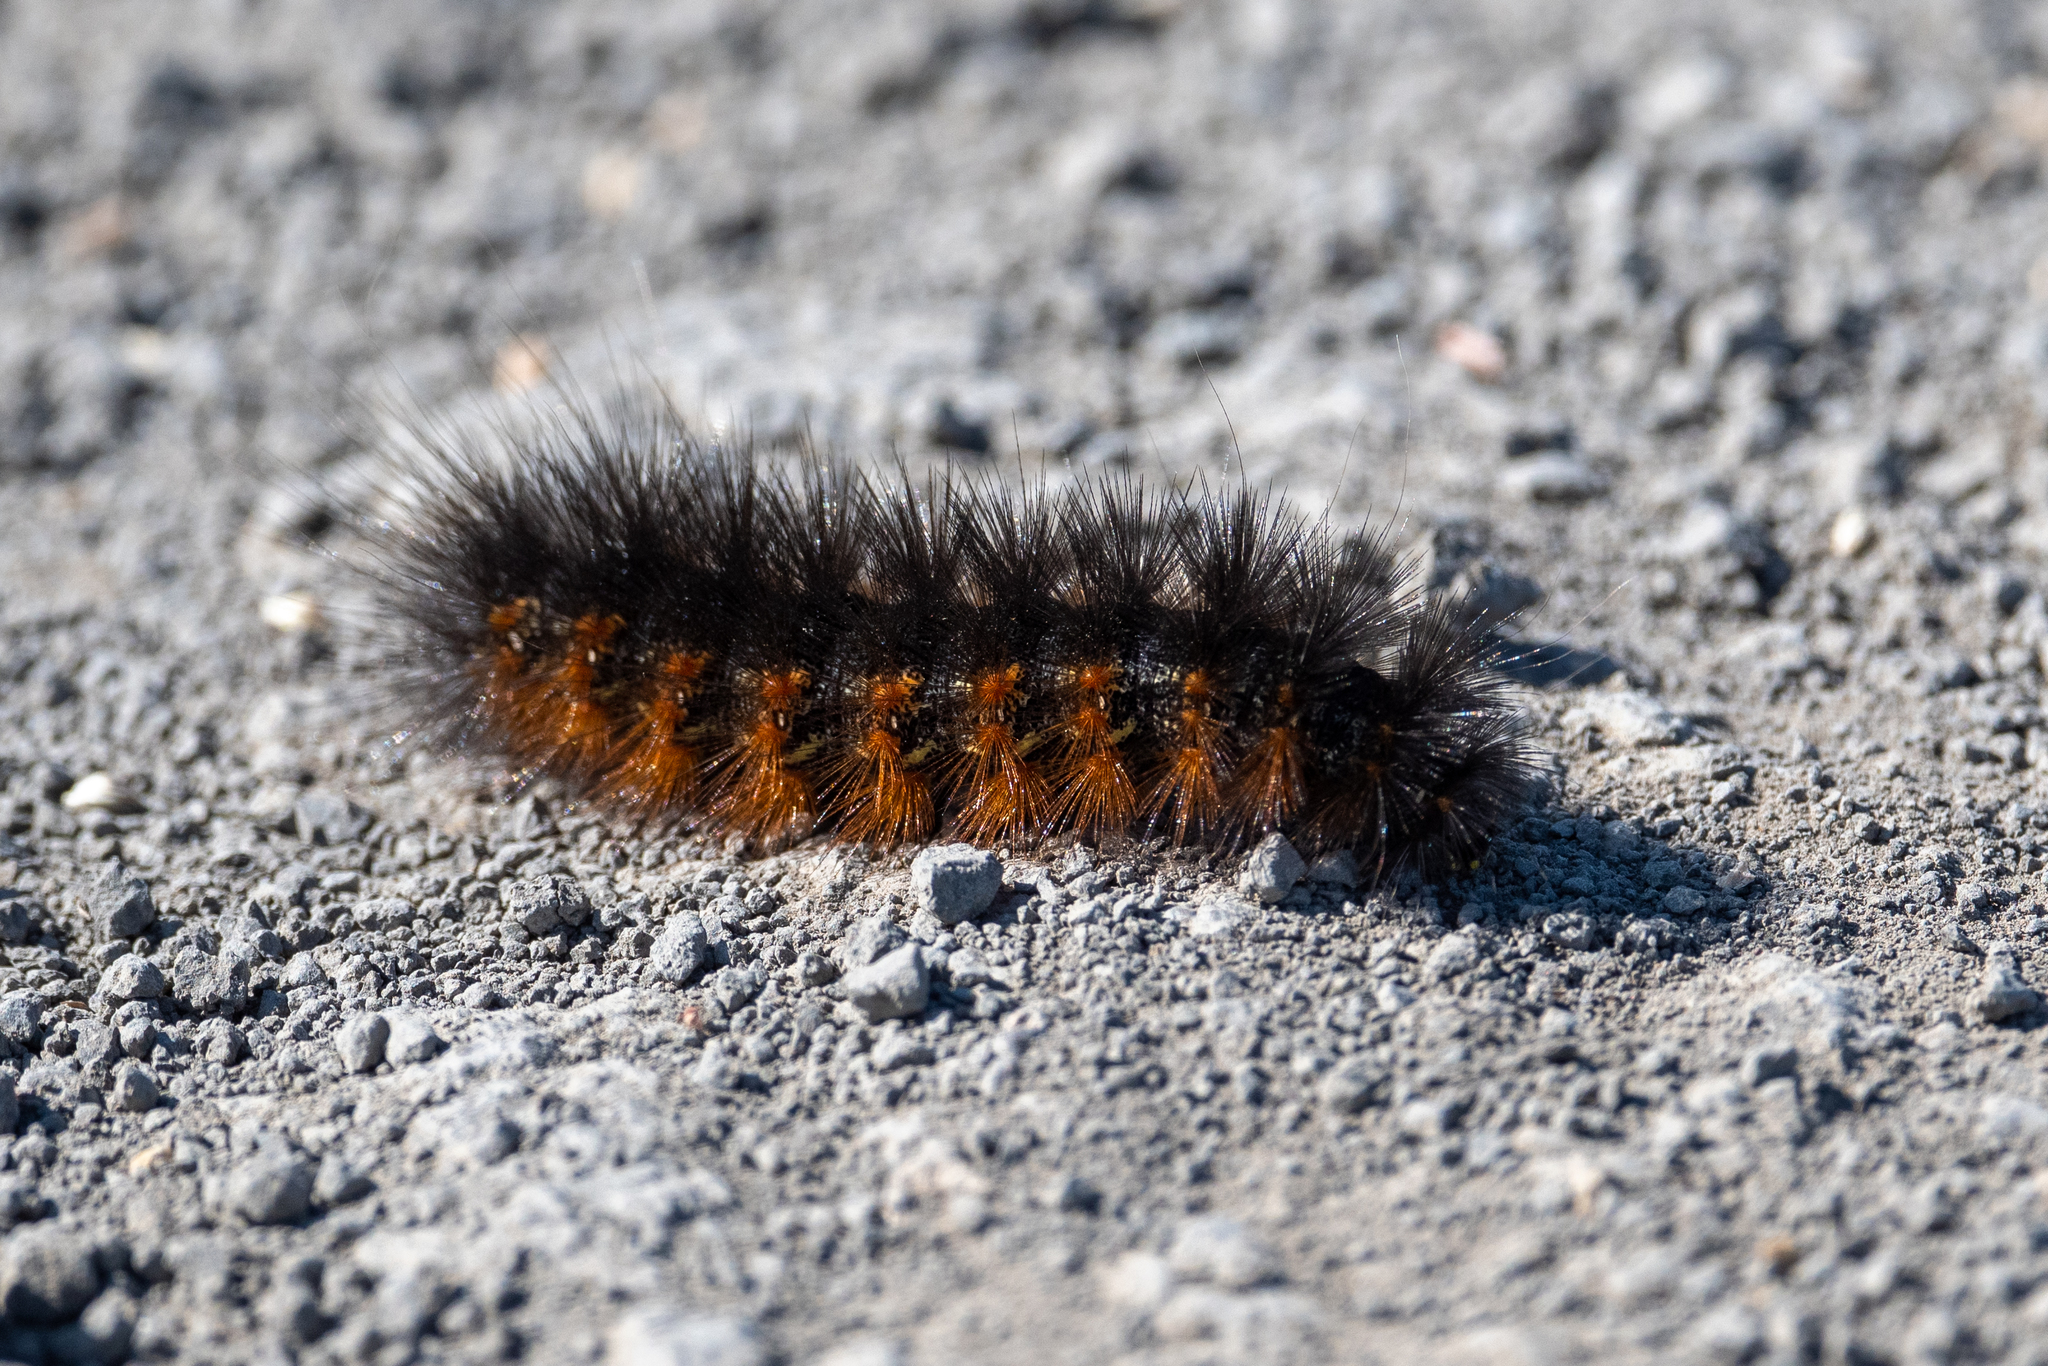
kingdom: Animalia
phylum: Arthropoda
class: Insecta
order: Lepidoptera
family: Erebidae
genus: Estigmene
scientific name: Estigmene acrea
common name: Salt marsh moth
